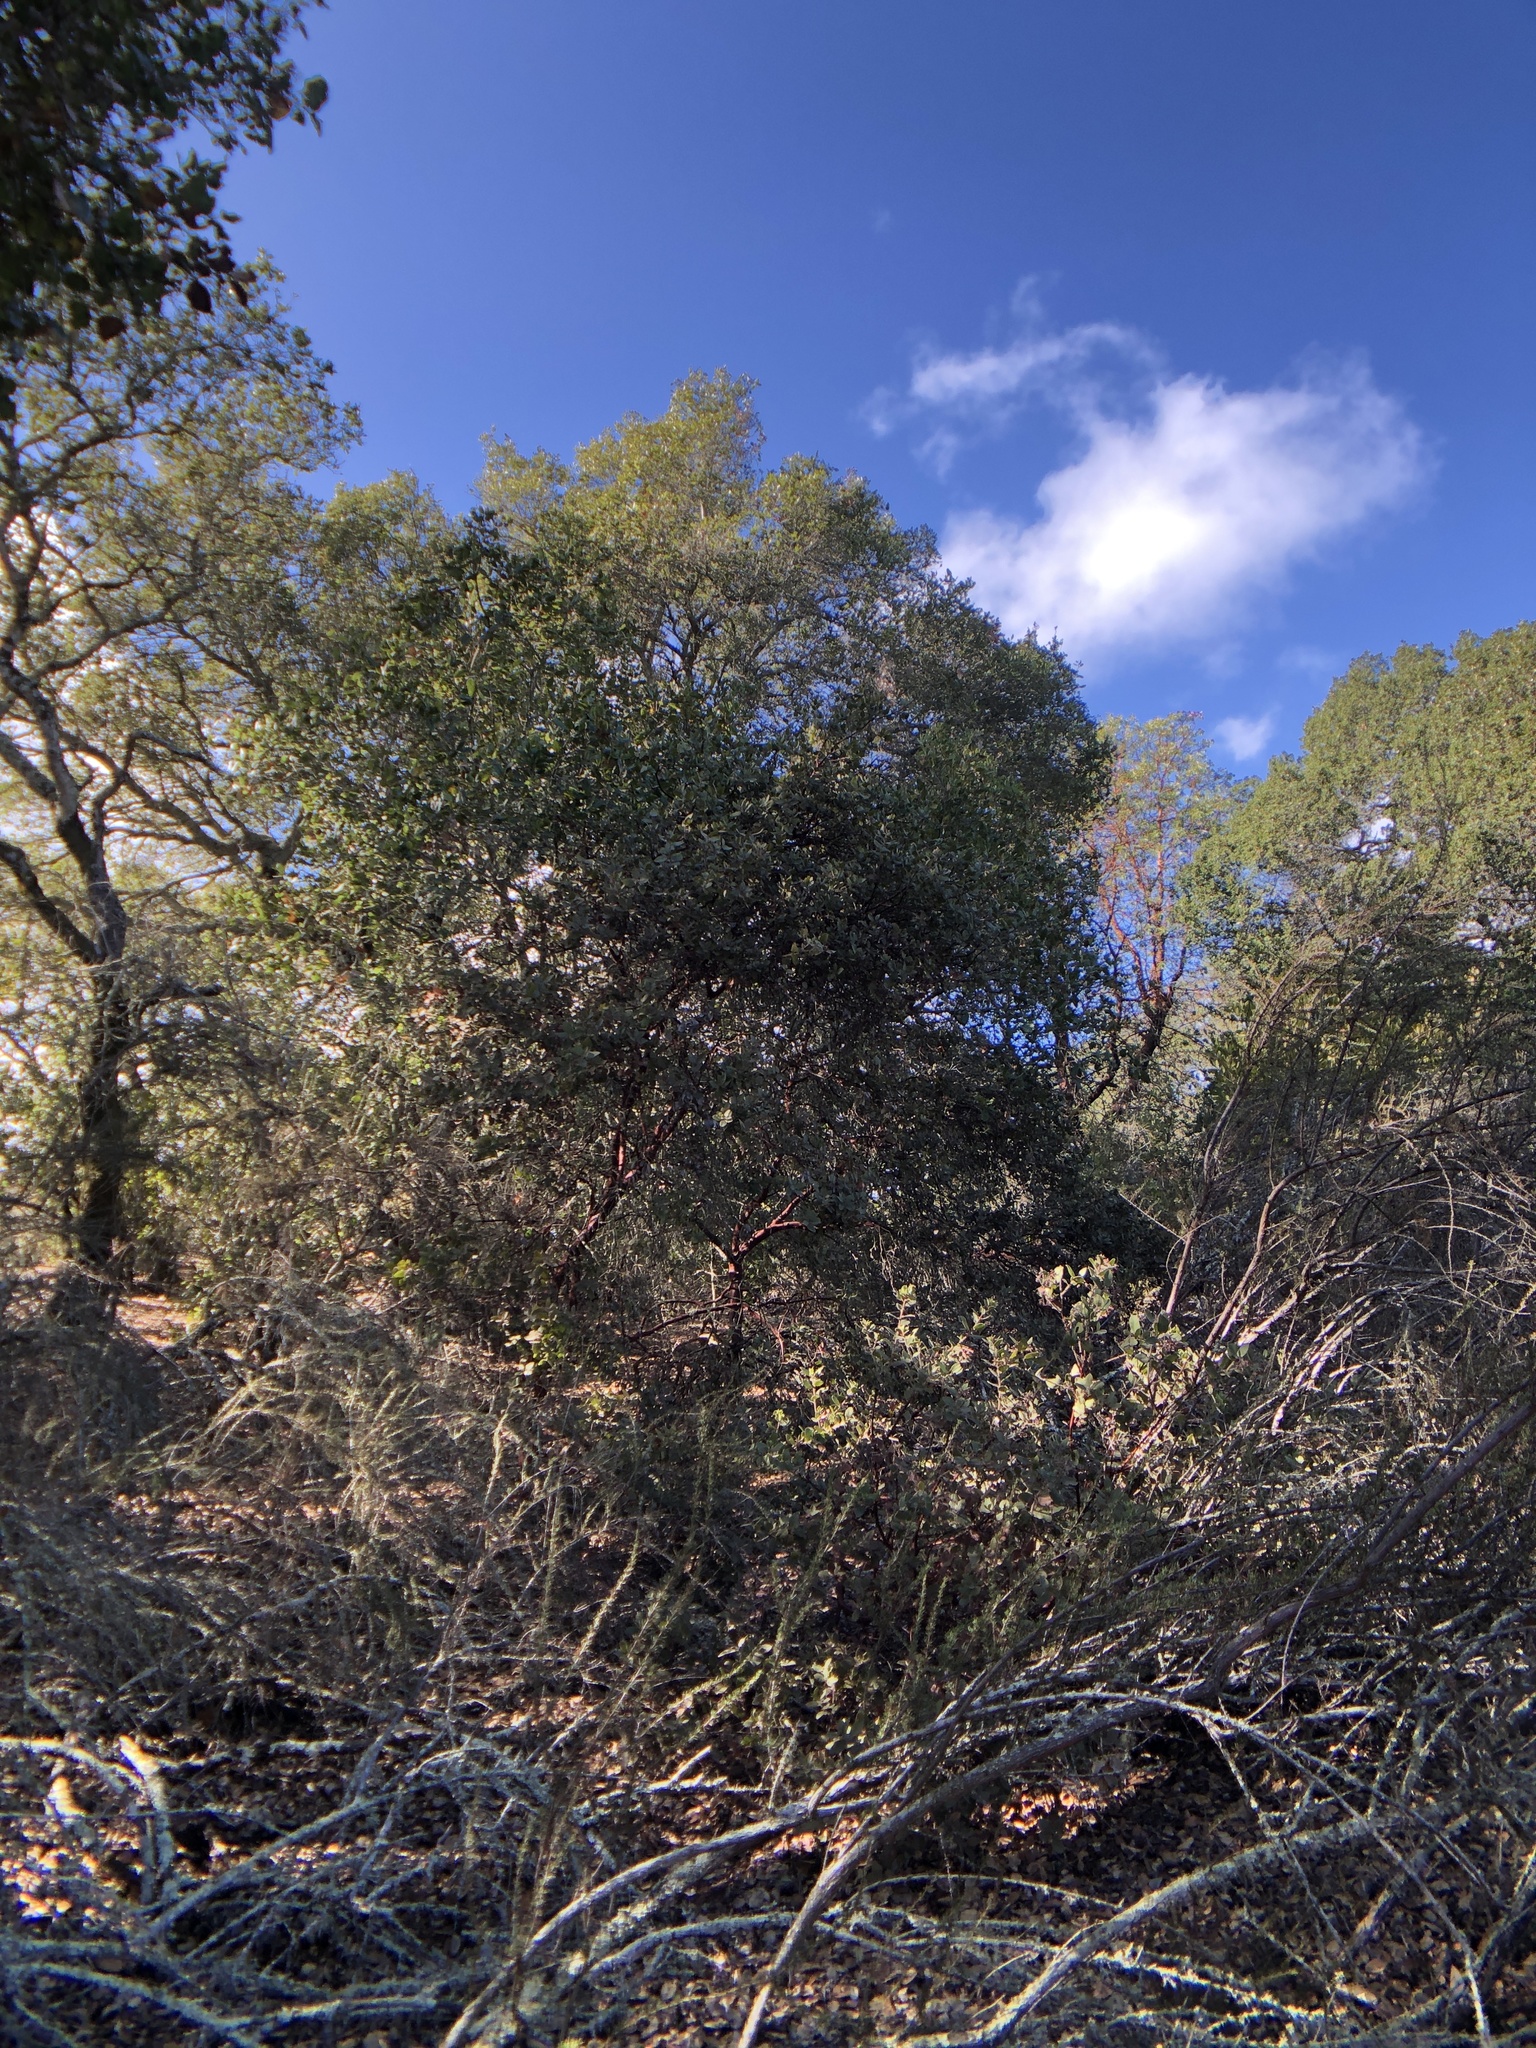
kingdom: Plantae
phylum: Tracheophyta
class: Magnoliopsida
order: Ericales
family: Ericaceae
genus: Arctostaphylos
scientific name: Arctostaphylos crustacea
